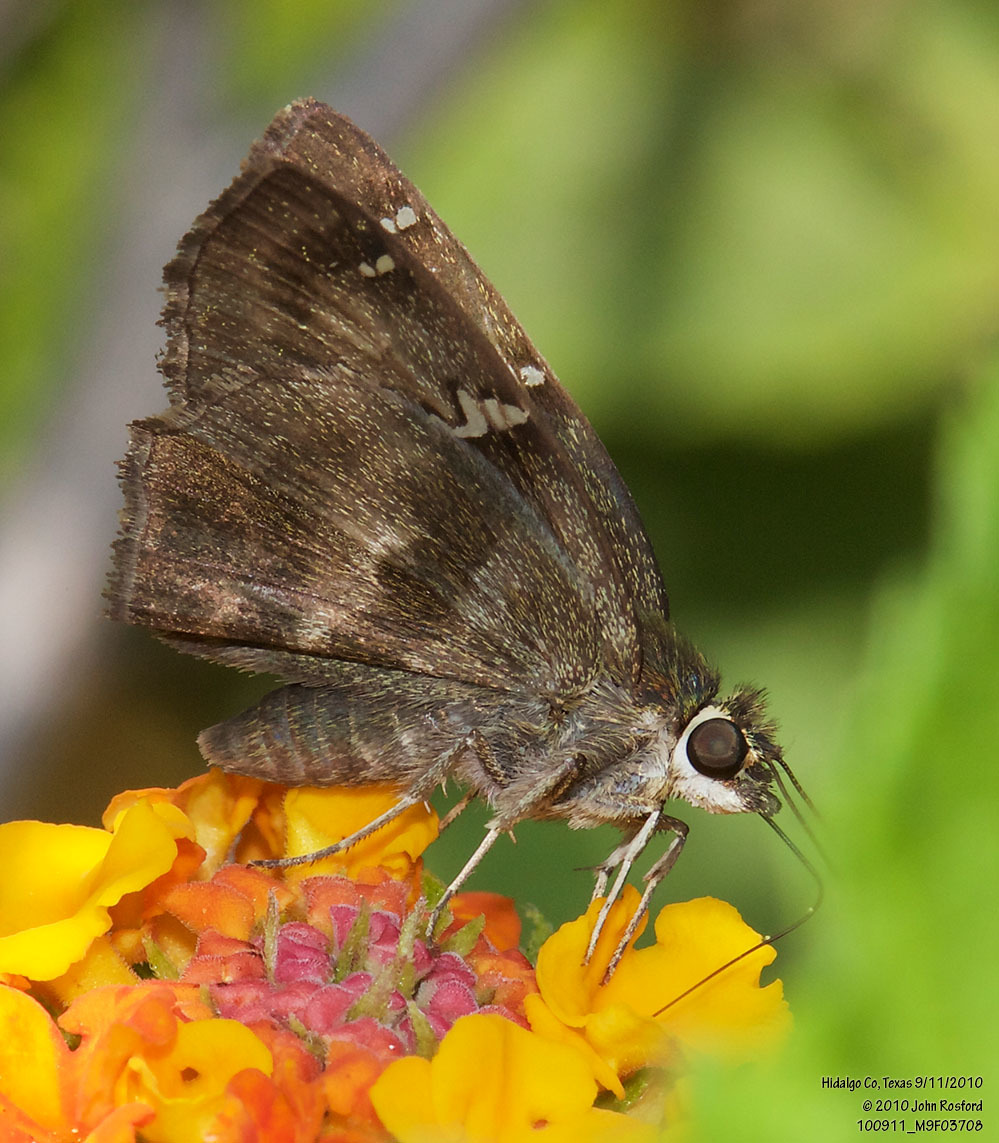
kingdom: Animalia
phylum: Arthropoda
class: Insecta
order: Lepidoptera
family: Hesperiidae
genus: Autochton
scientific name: Autochton potrillo
